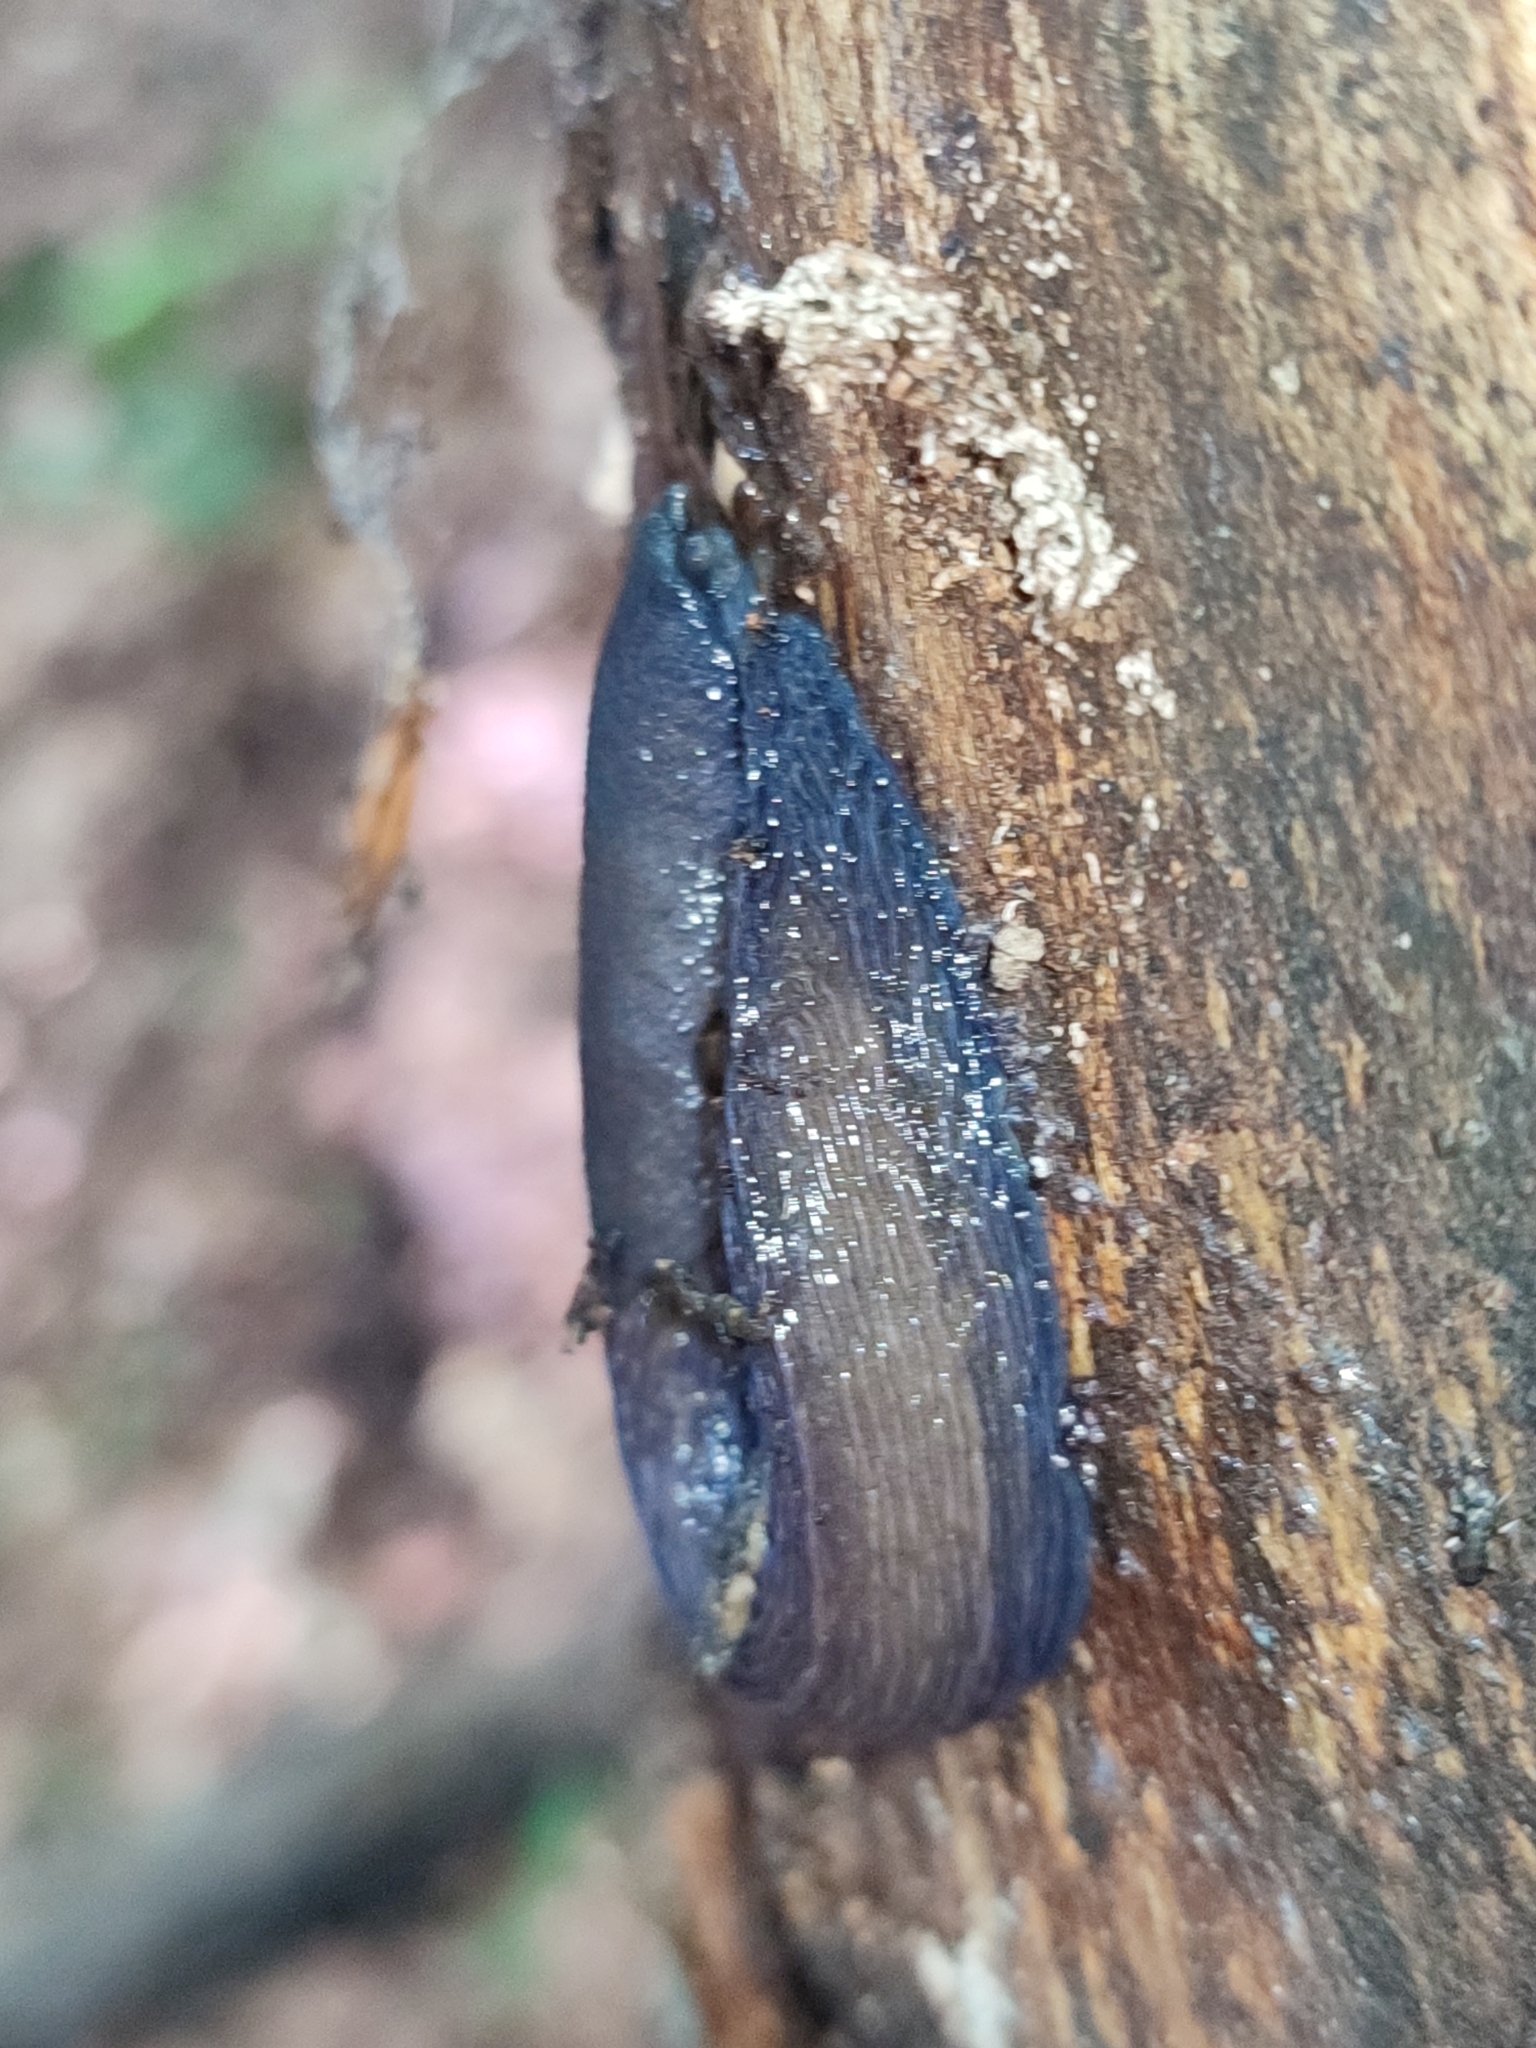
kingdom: Animalia
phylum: Mollusca
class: Gastropoda
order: Stylommatophora
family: Limacidae
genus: Bielzia
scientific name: Bielzia coerulans
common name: Carpathian blue slug
